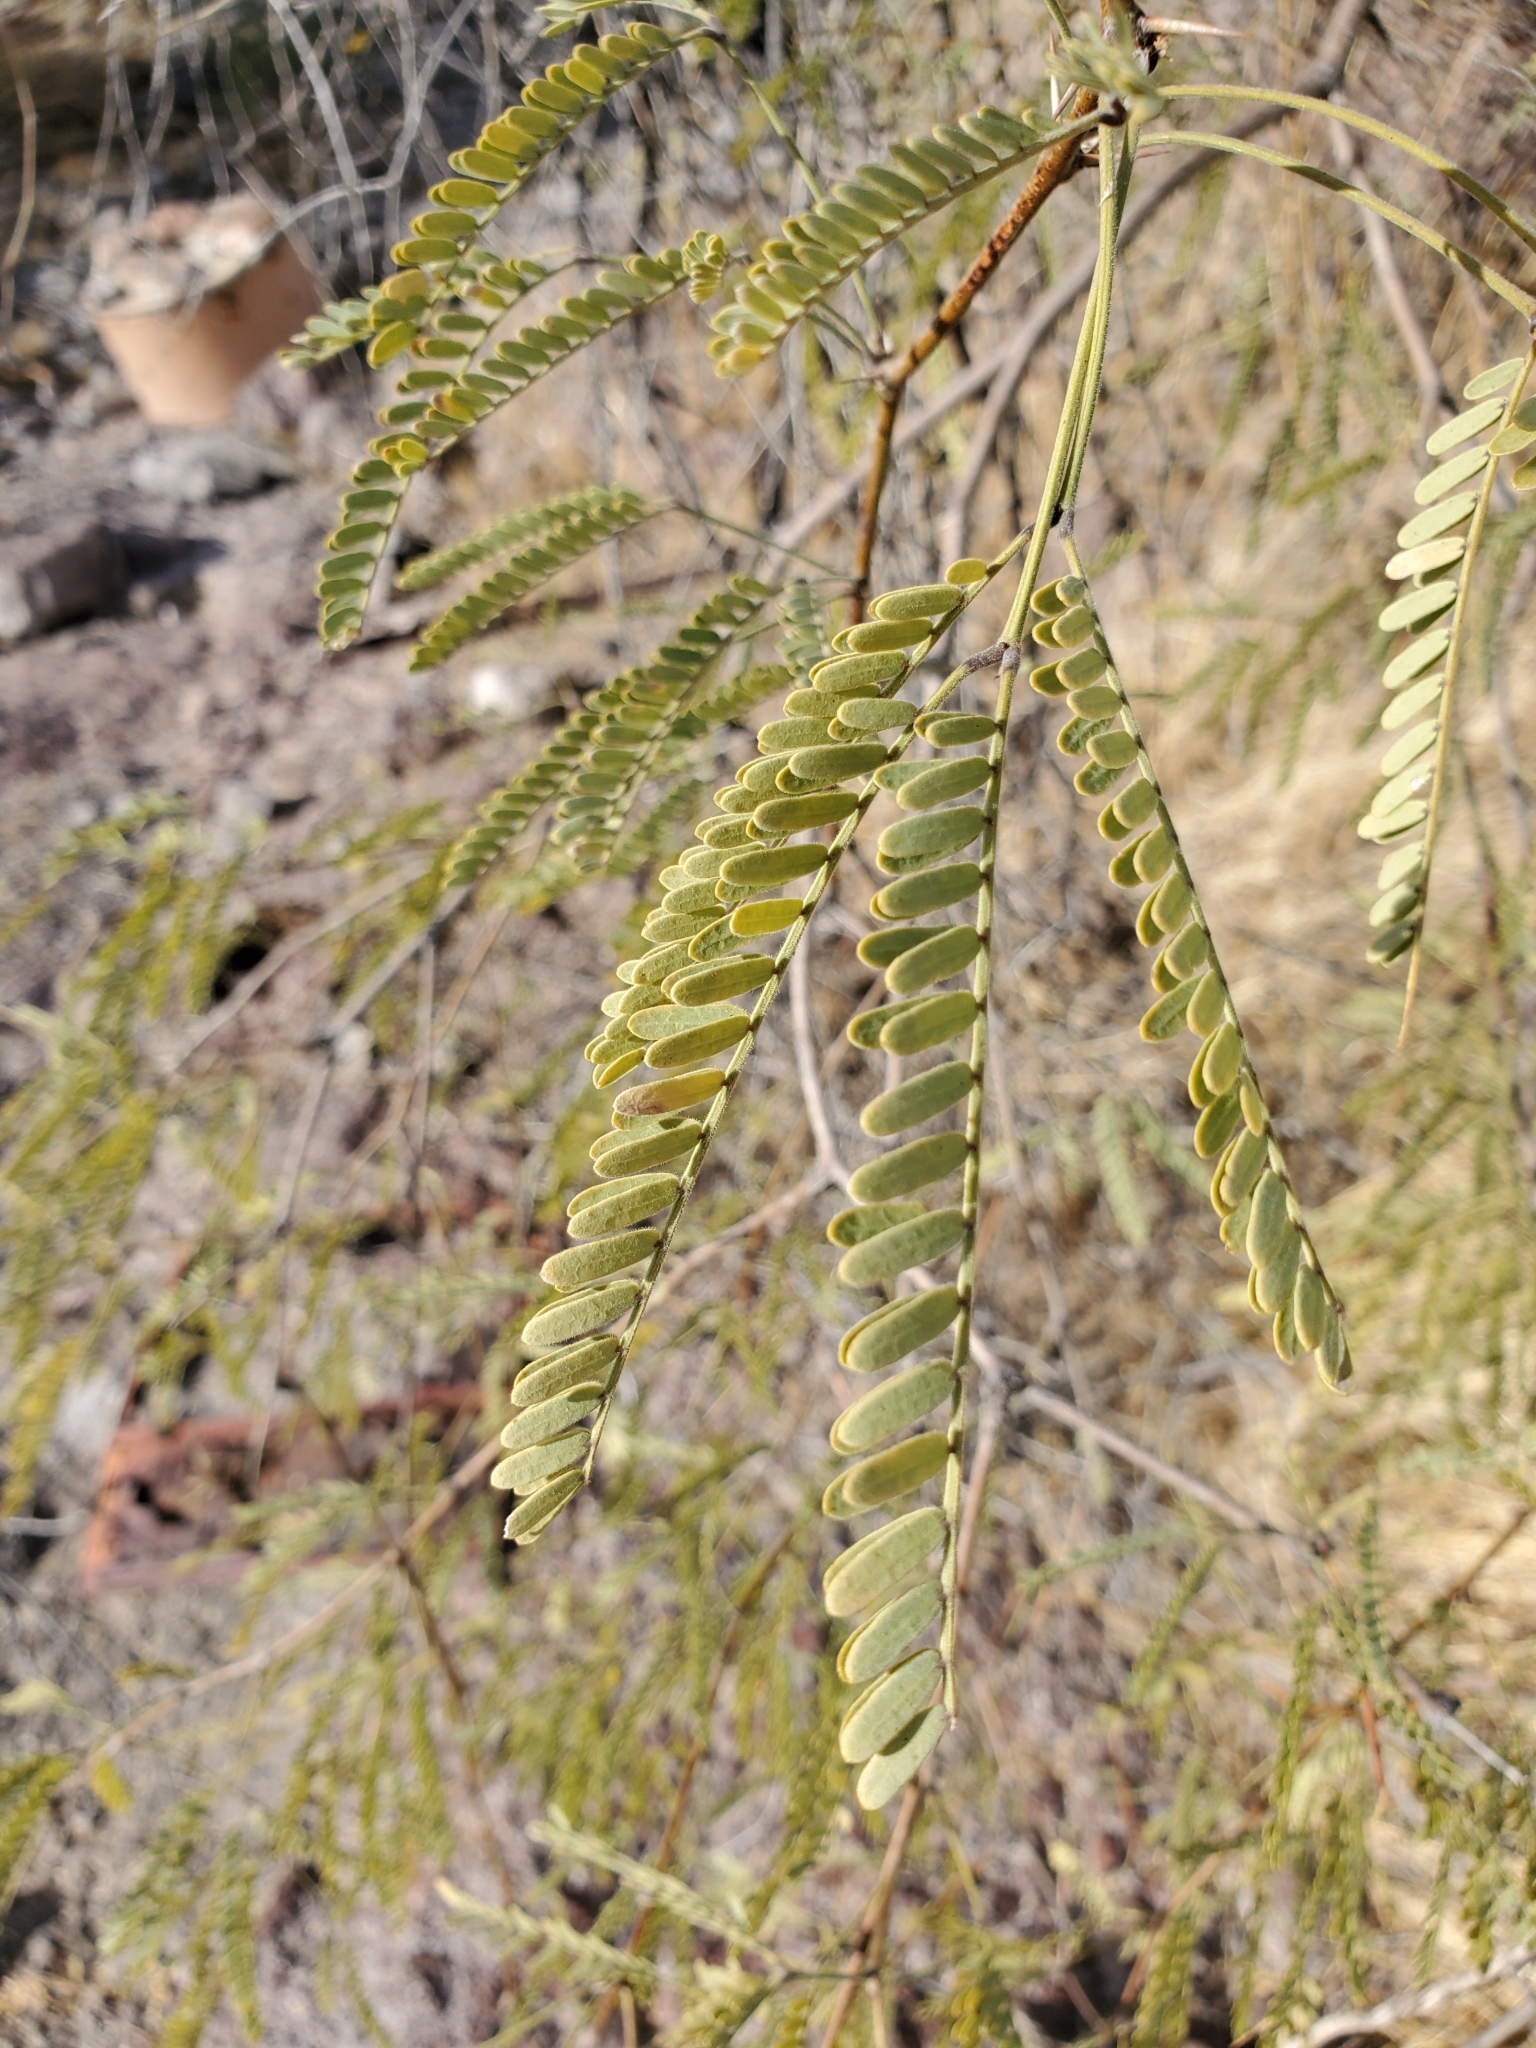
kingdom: Plantae
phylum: Tracheophyta
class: Magnoliopsida
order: Fabales
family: Fabaceae
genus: Prosopis
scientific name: Prosopis velutina
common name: Velvet mesquite
